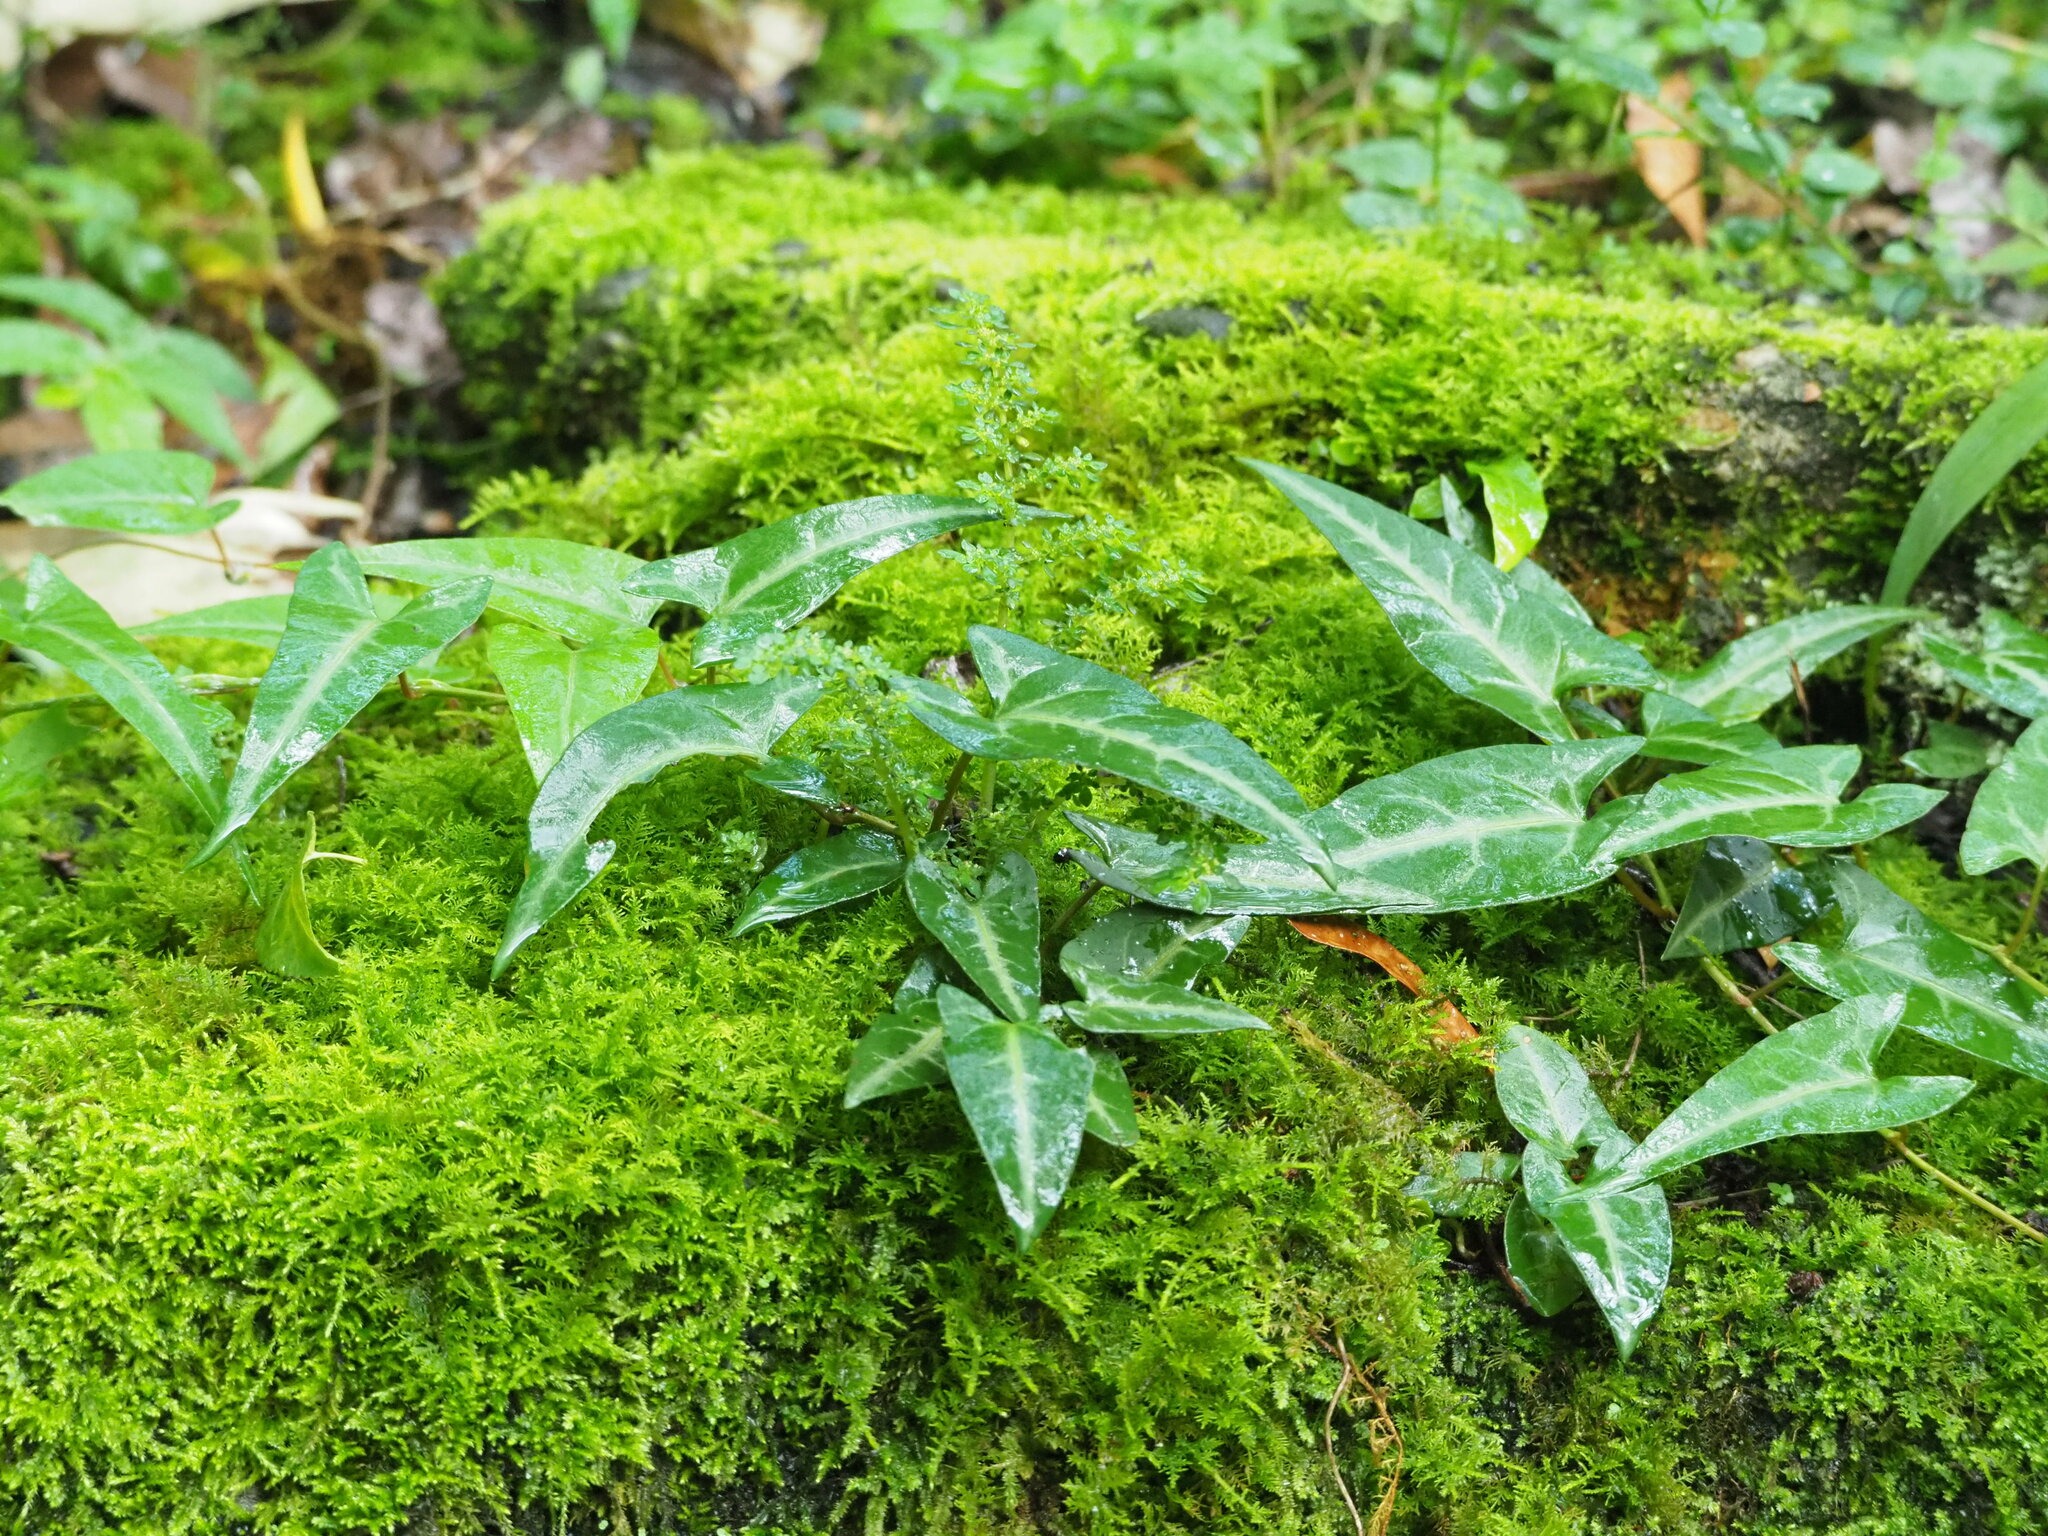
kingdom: Plantae
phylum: Tracheophyta
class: Magnoliopsida
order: Caryophyllales
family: Polygonaceae
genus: Reynoutria
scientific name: Reynoutria multiflora
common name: Chinese fleeceflower
